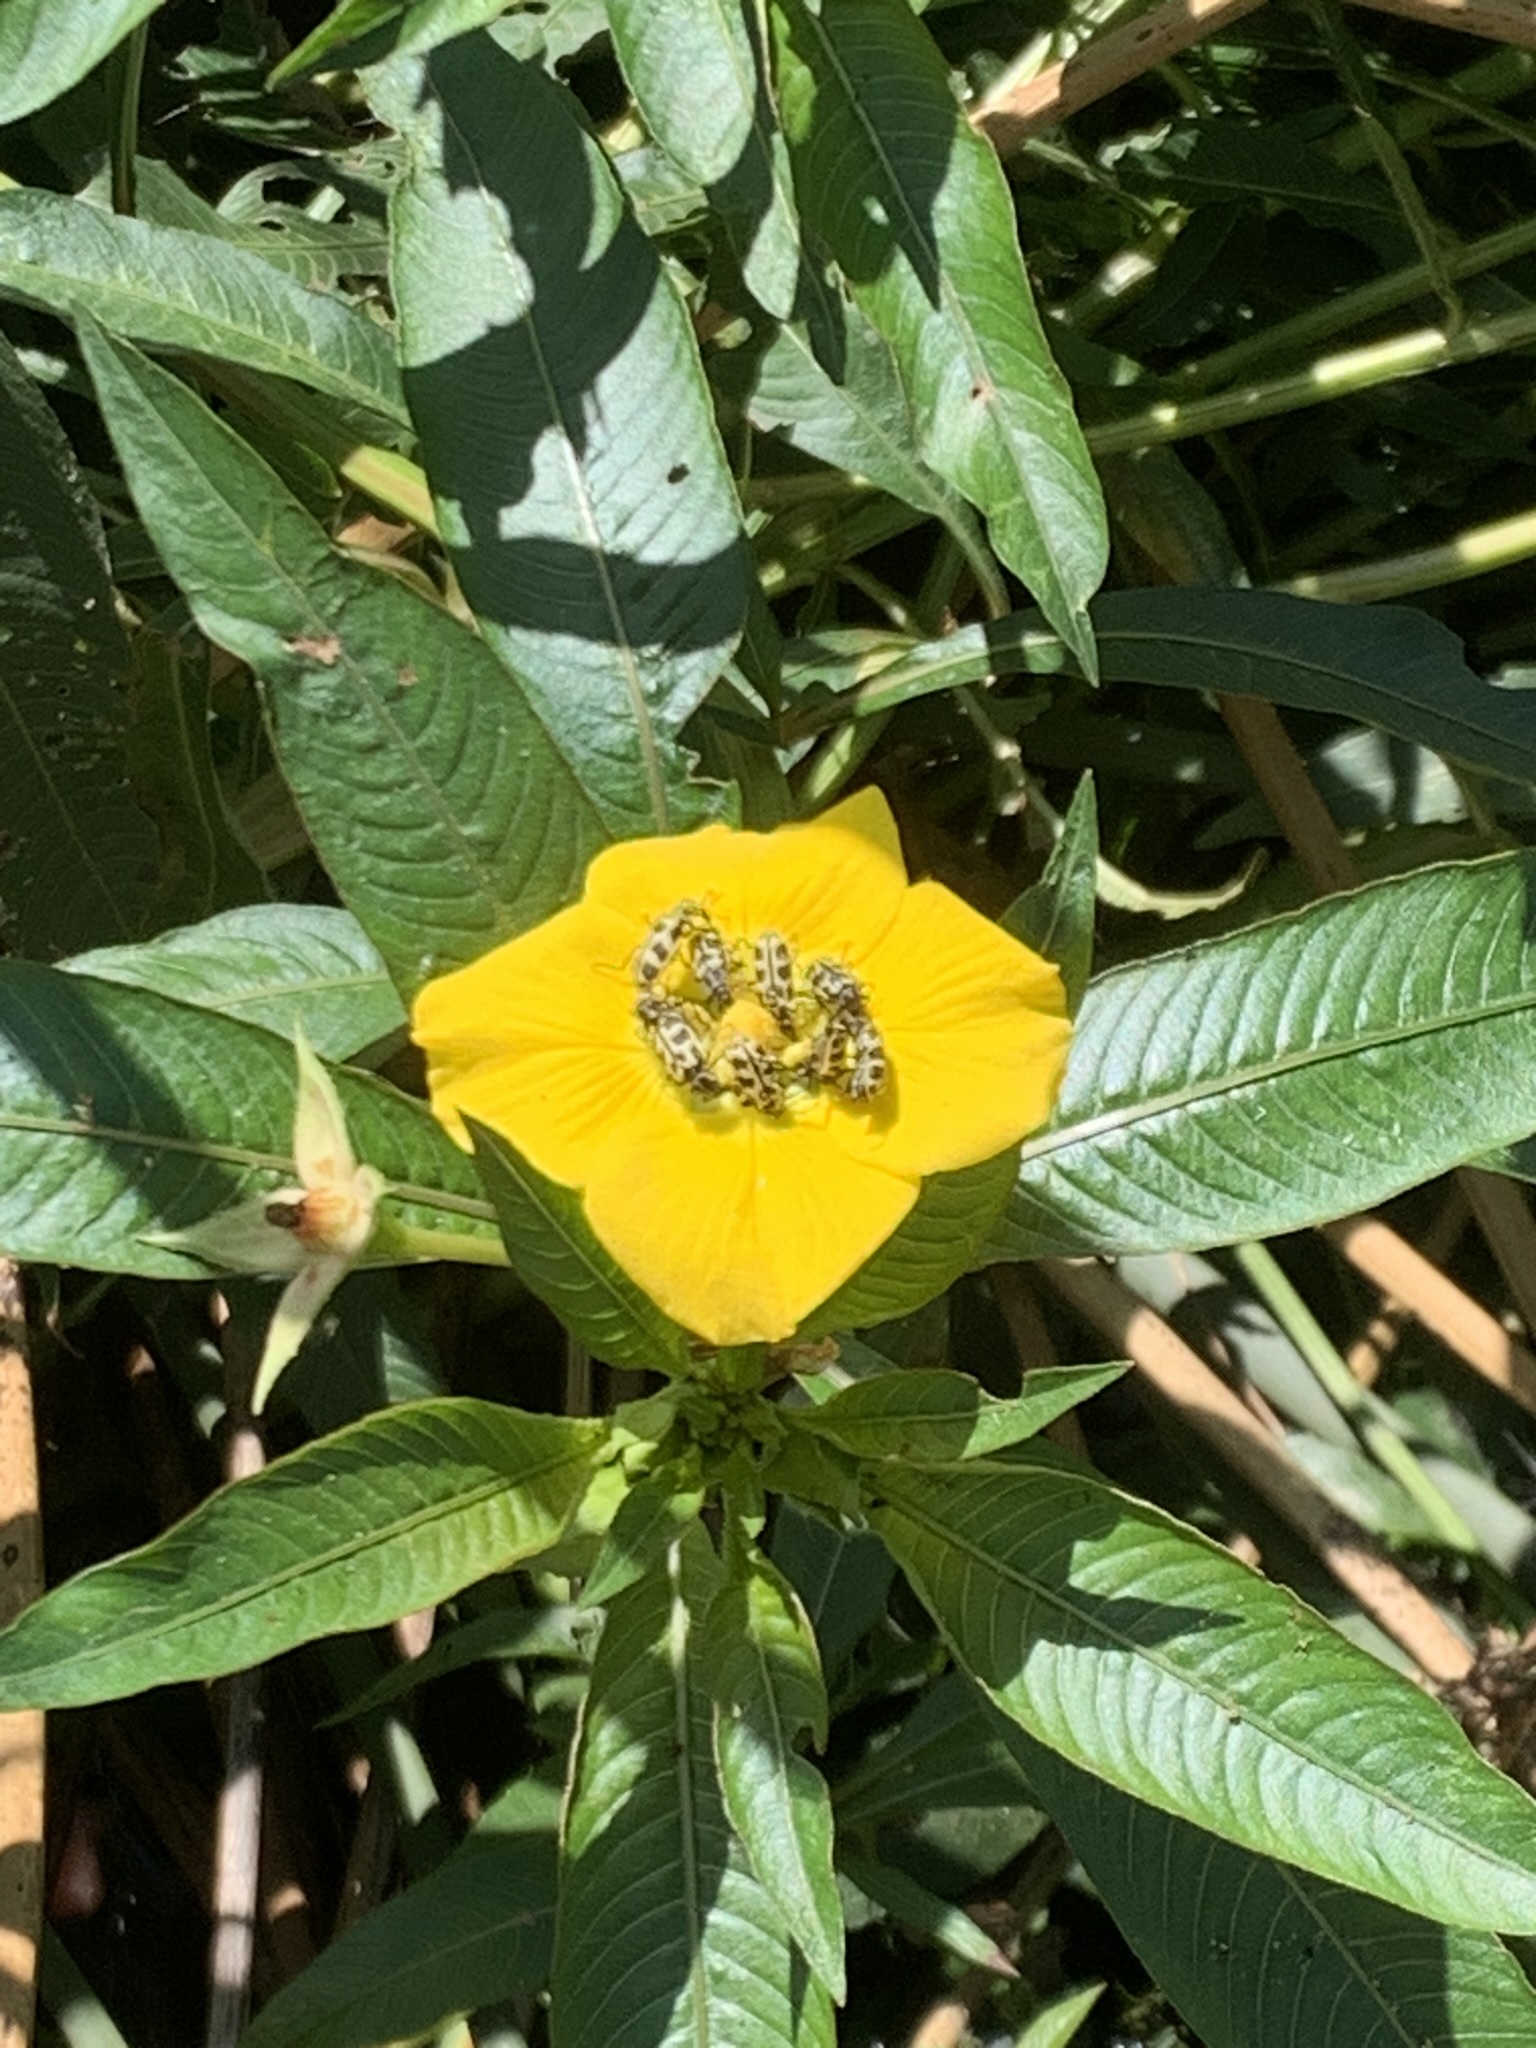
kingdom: Animalia
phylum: Arthropoda
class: Insecta
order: Coleoptera
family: Melyridae
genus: Astylus
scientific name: Astylus atromaculatus
